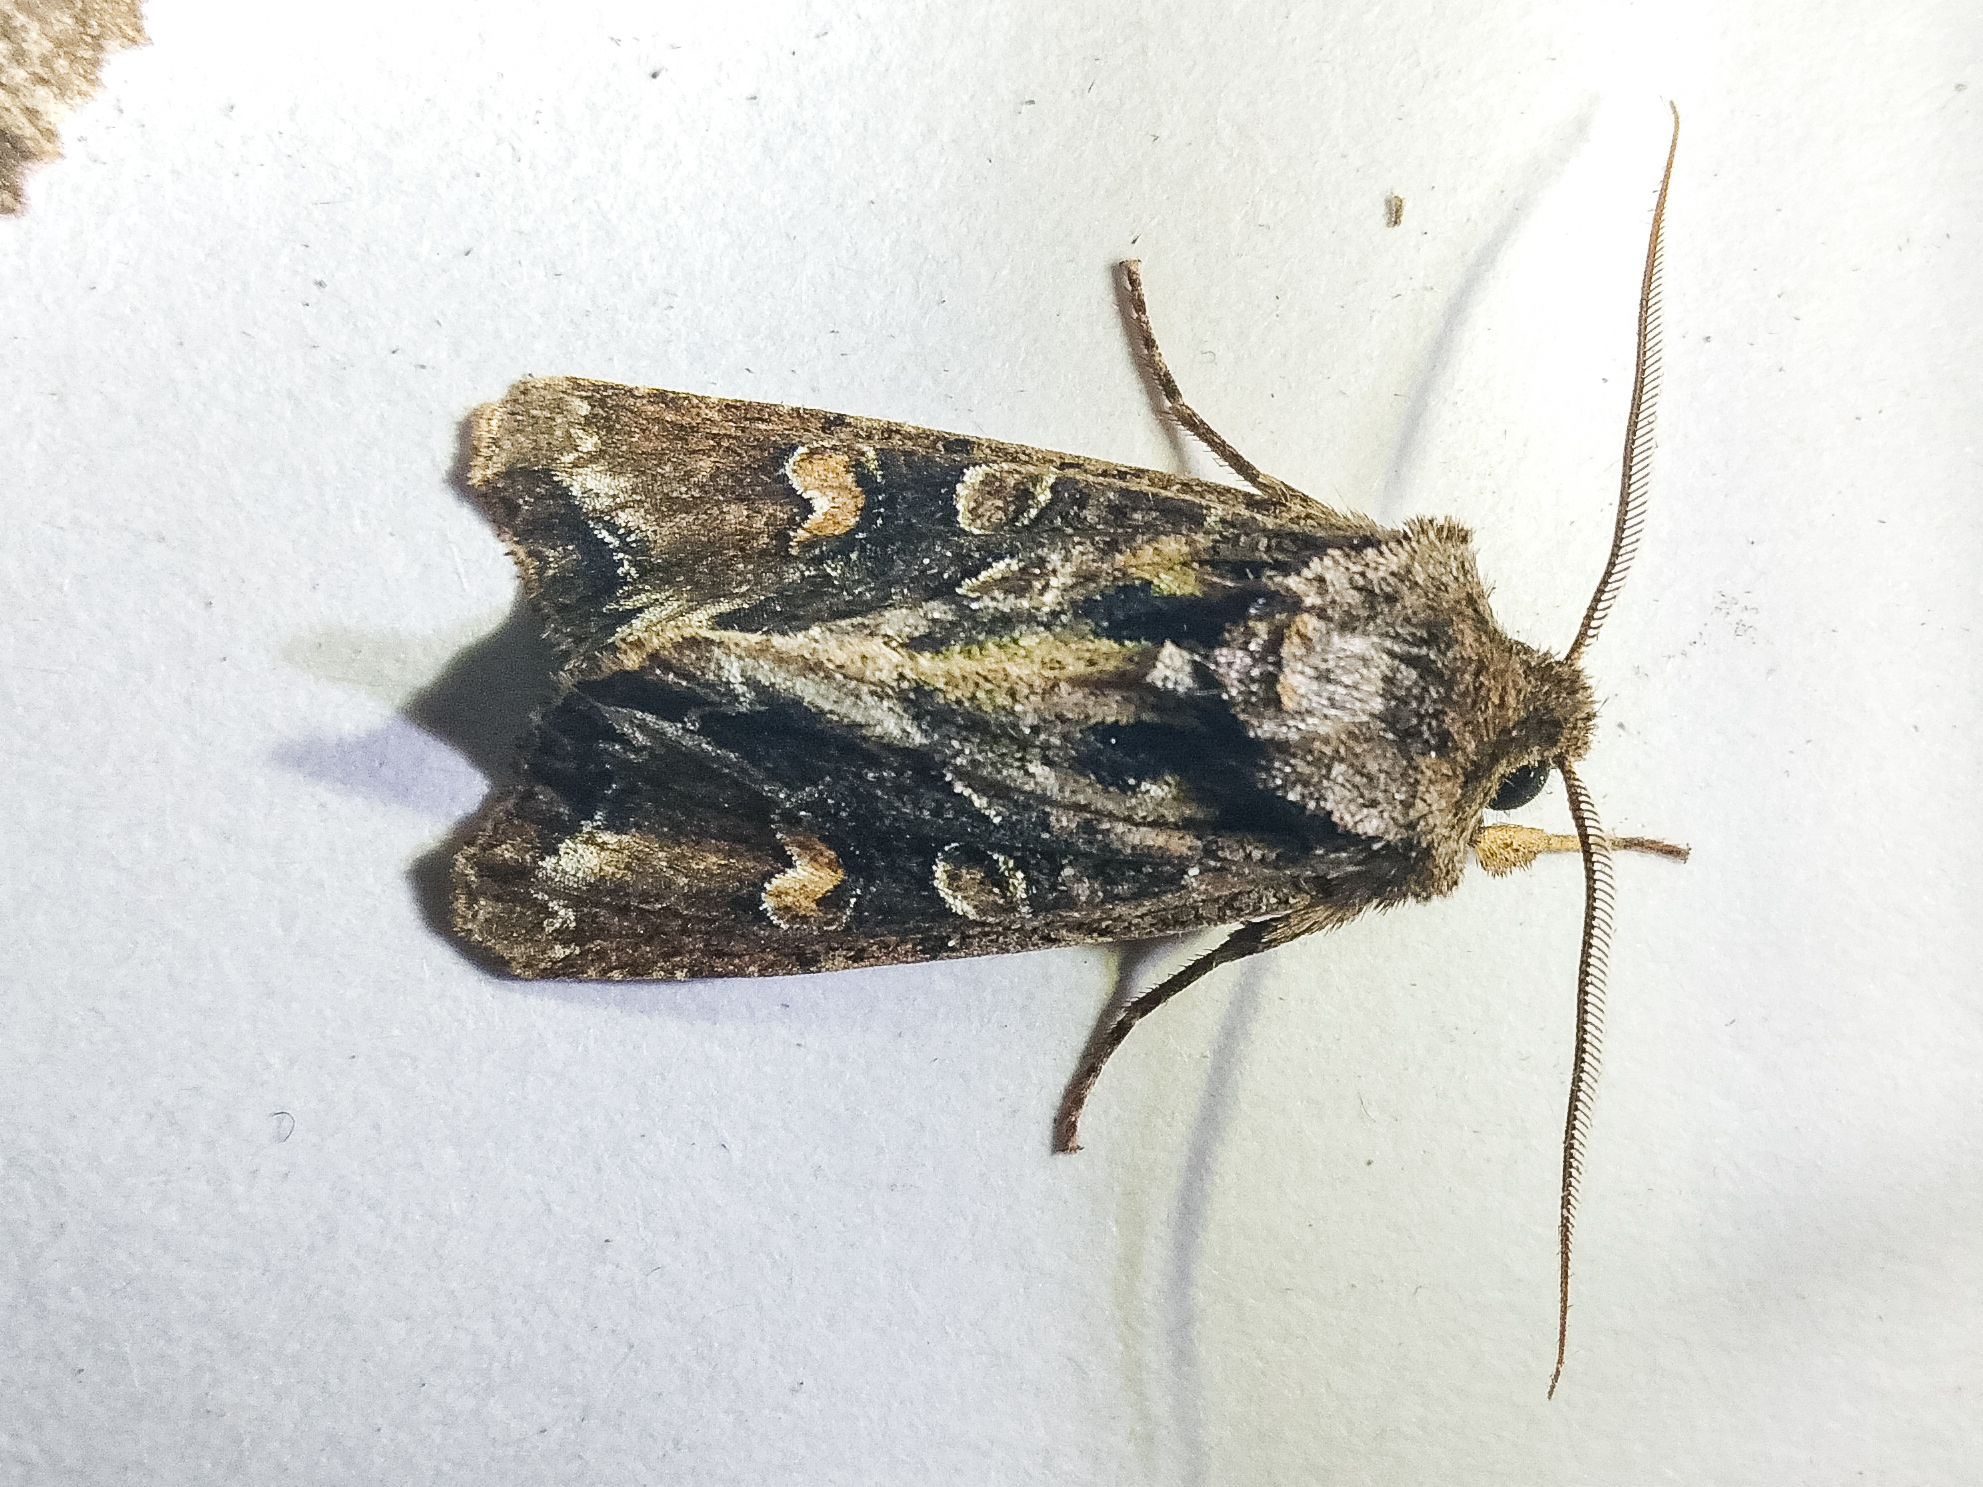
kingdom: Animalia
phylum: Arthropoda
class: Insecta
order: Lepidoptera
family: Noctuidae
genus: Ichneutica
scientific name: Ichneutica insignis
